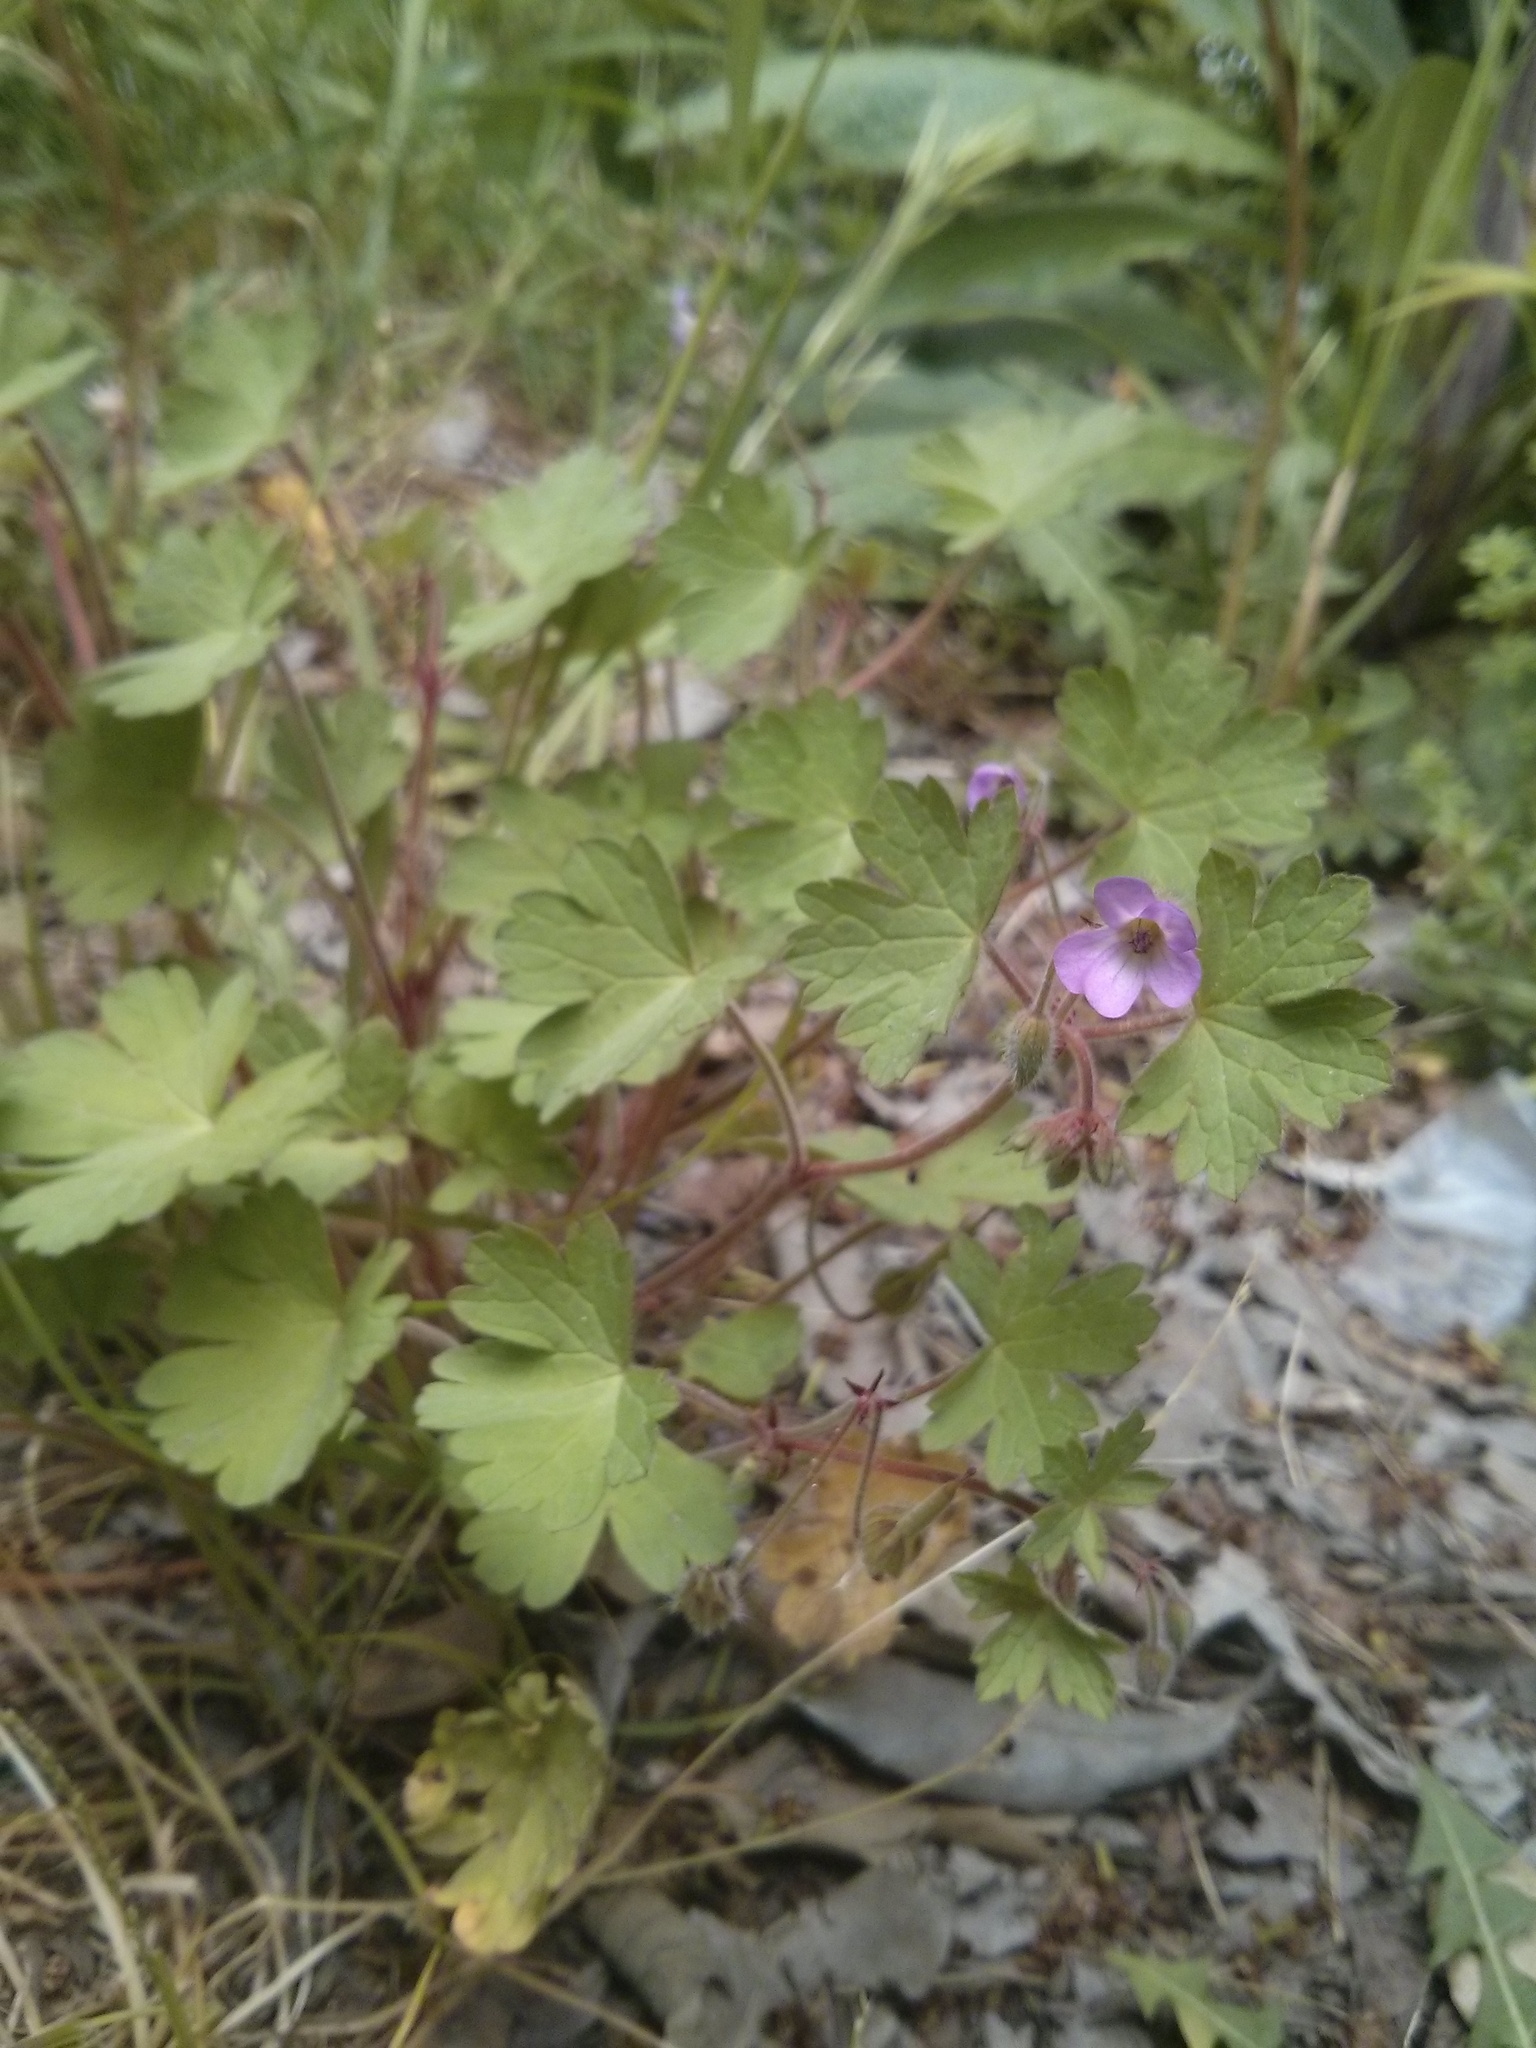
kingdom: Plantae
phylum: Tracheophyta
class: Magnoliopsida
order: Geraniales
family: Geraniaceae
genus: Geranium
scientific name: Geranium rotundifolium
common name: Round-leaved crane's-bill
